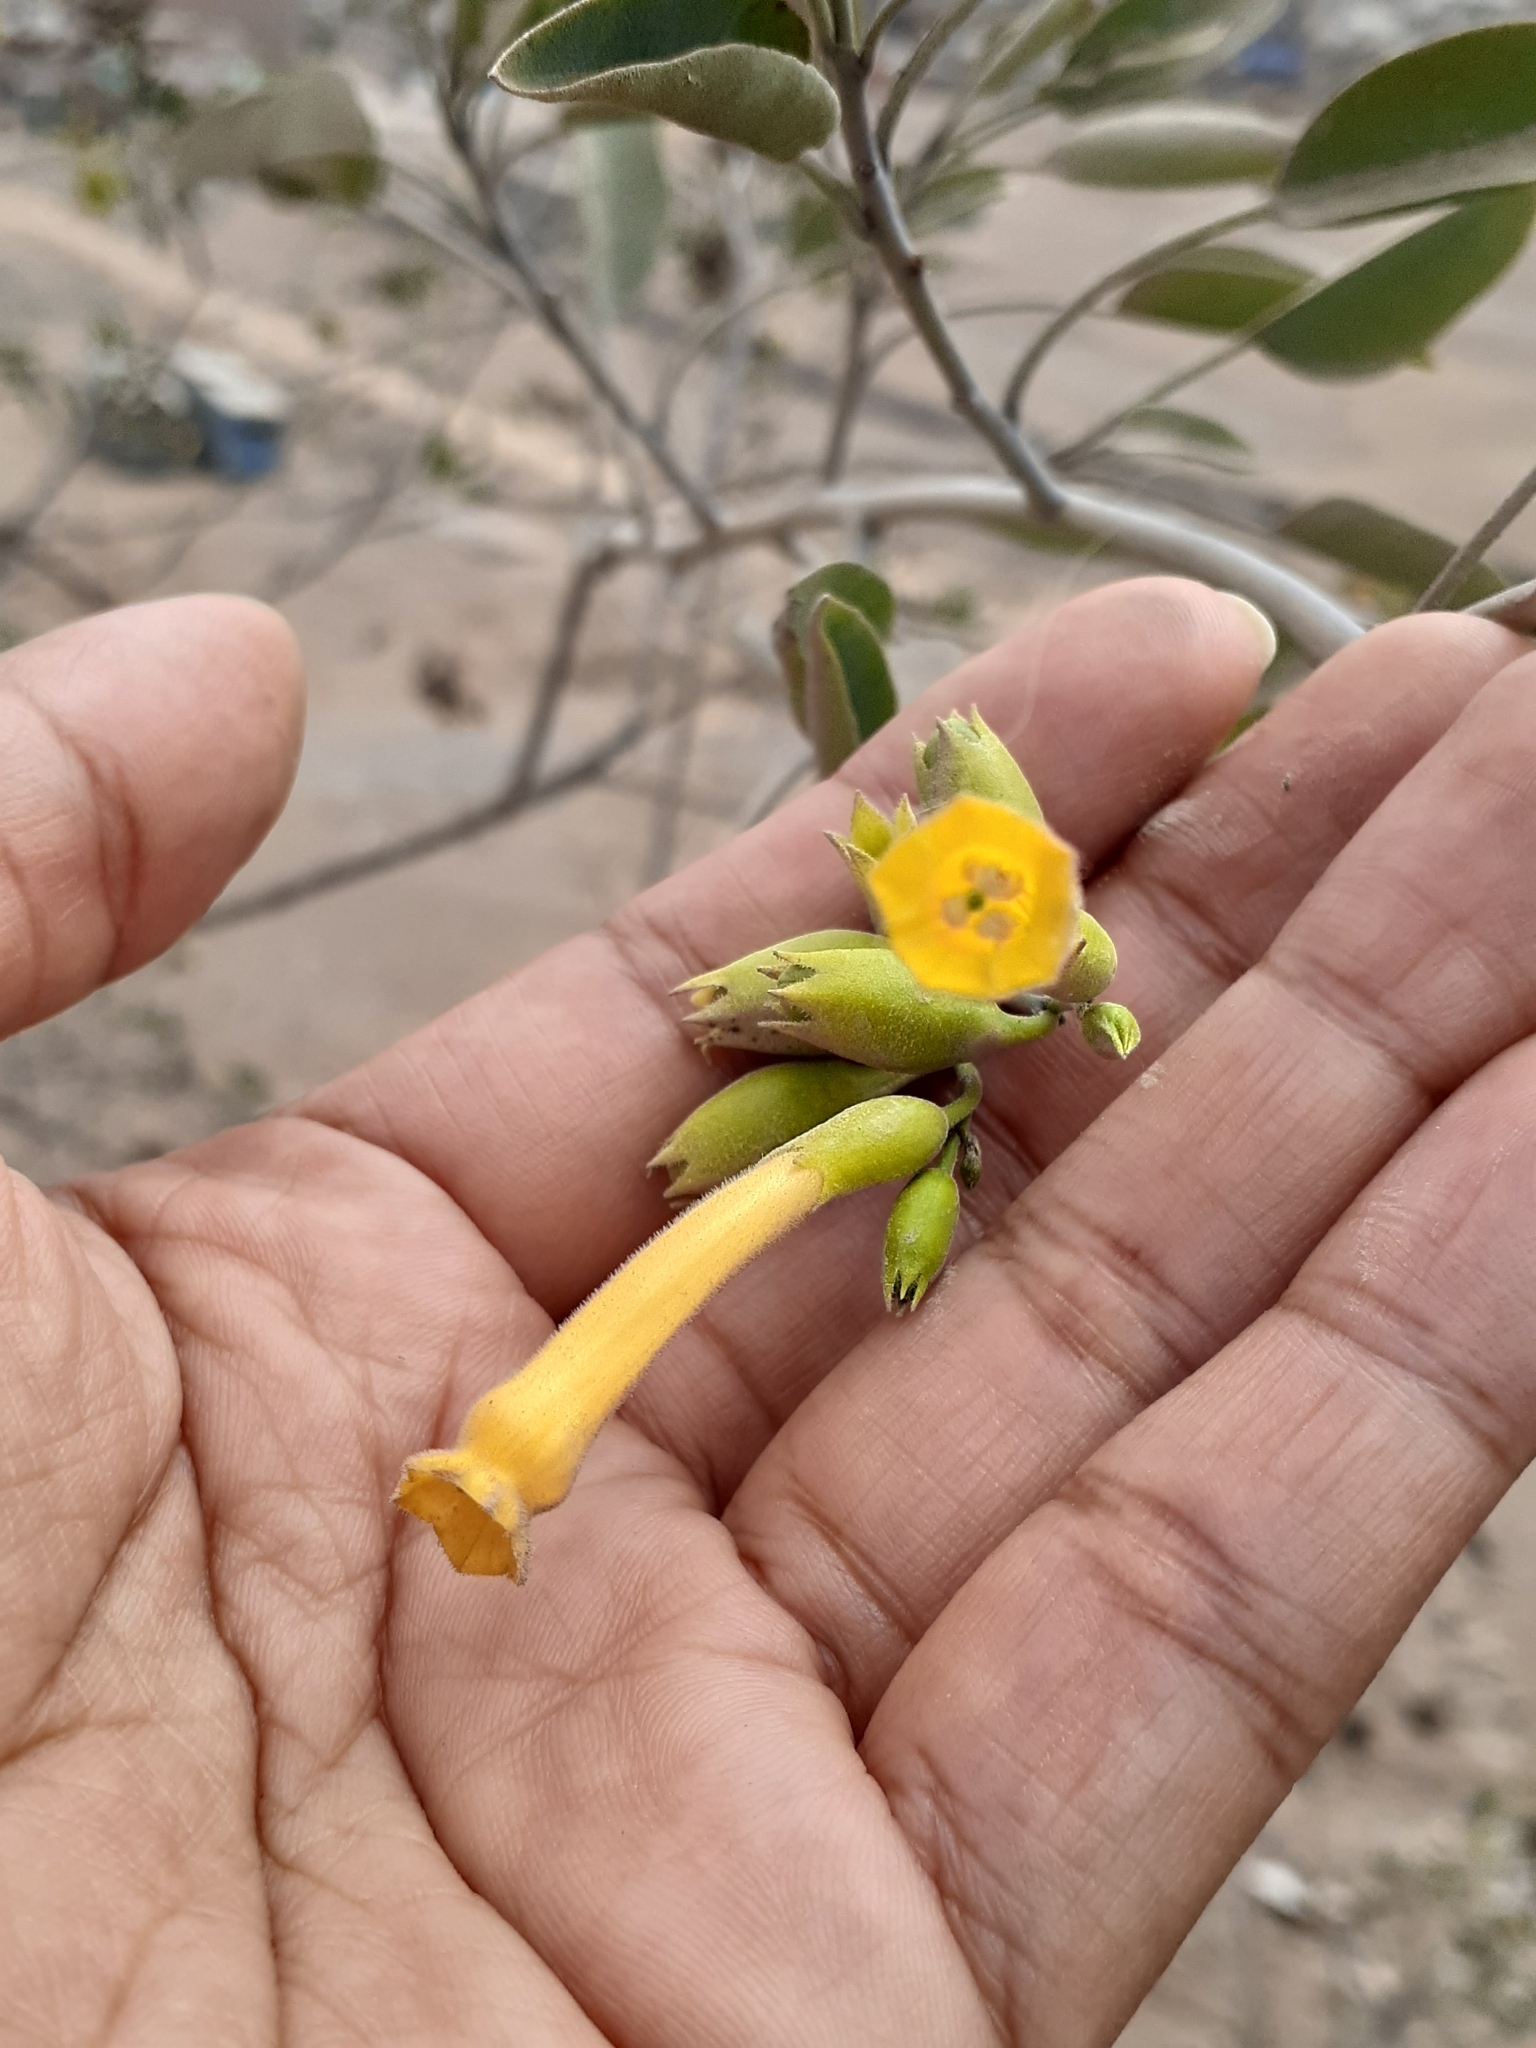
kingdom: Plantae
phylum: Tracheophyta
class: Magnoliopsida
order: Solanales
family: Solanaceae
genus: Nicotiana
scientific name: Nicotiana glauca
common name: Tree tobacco
